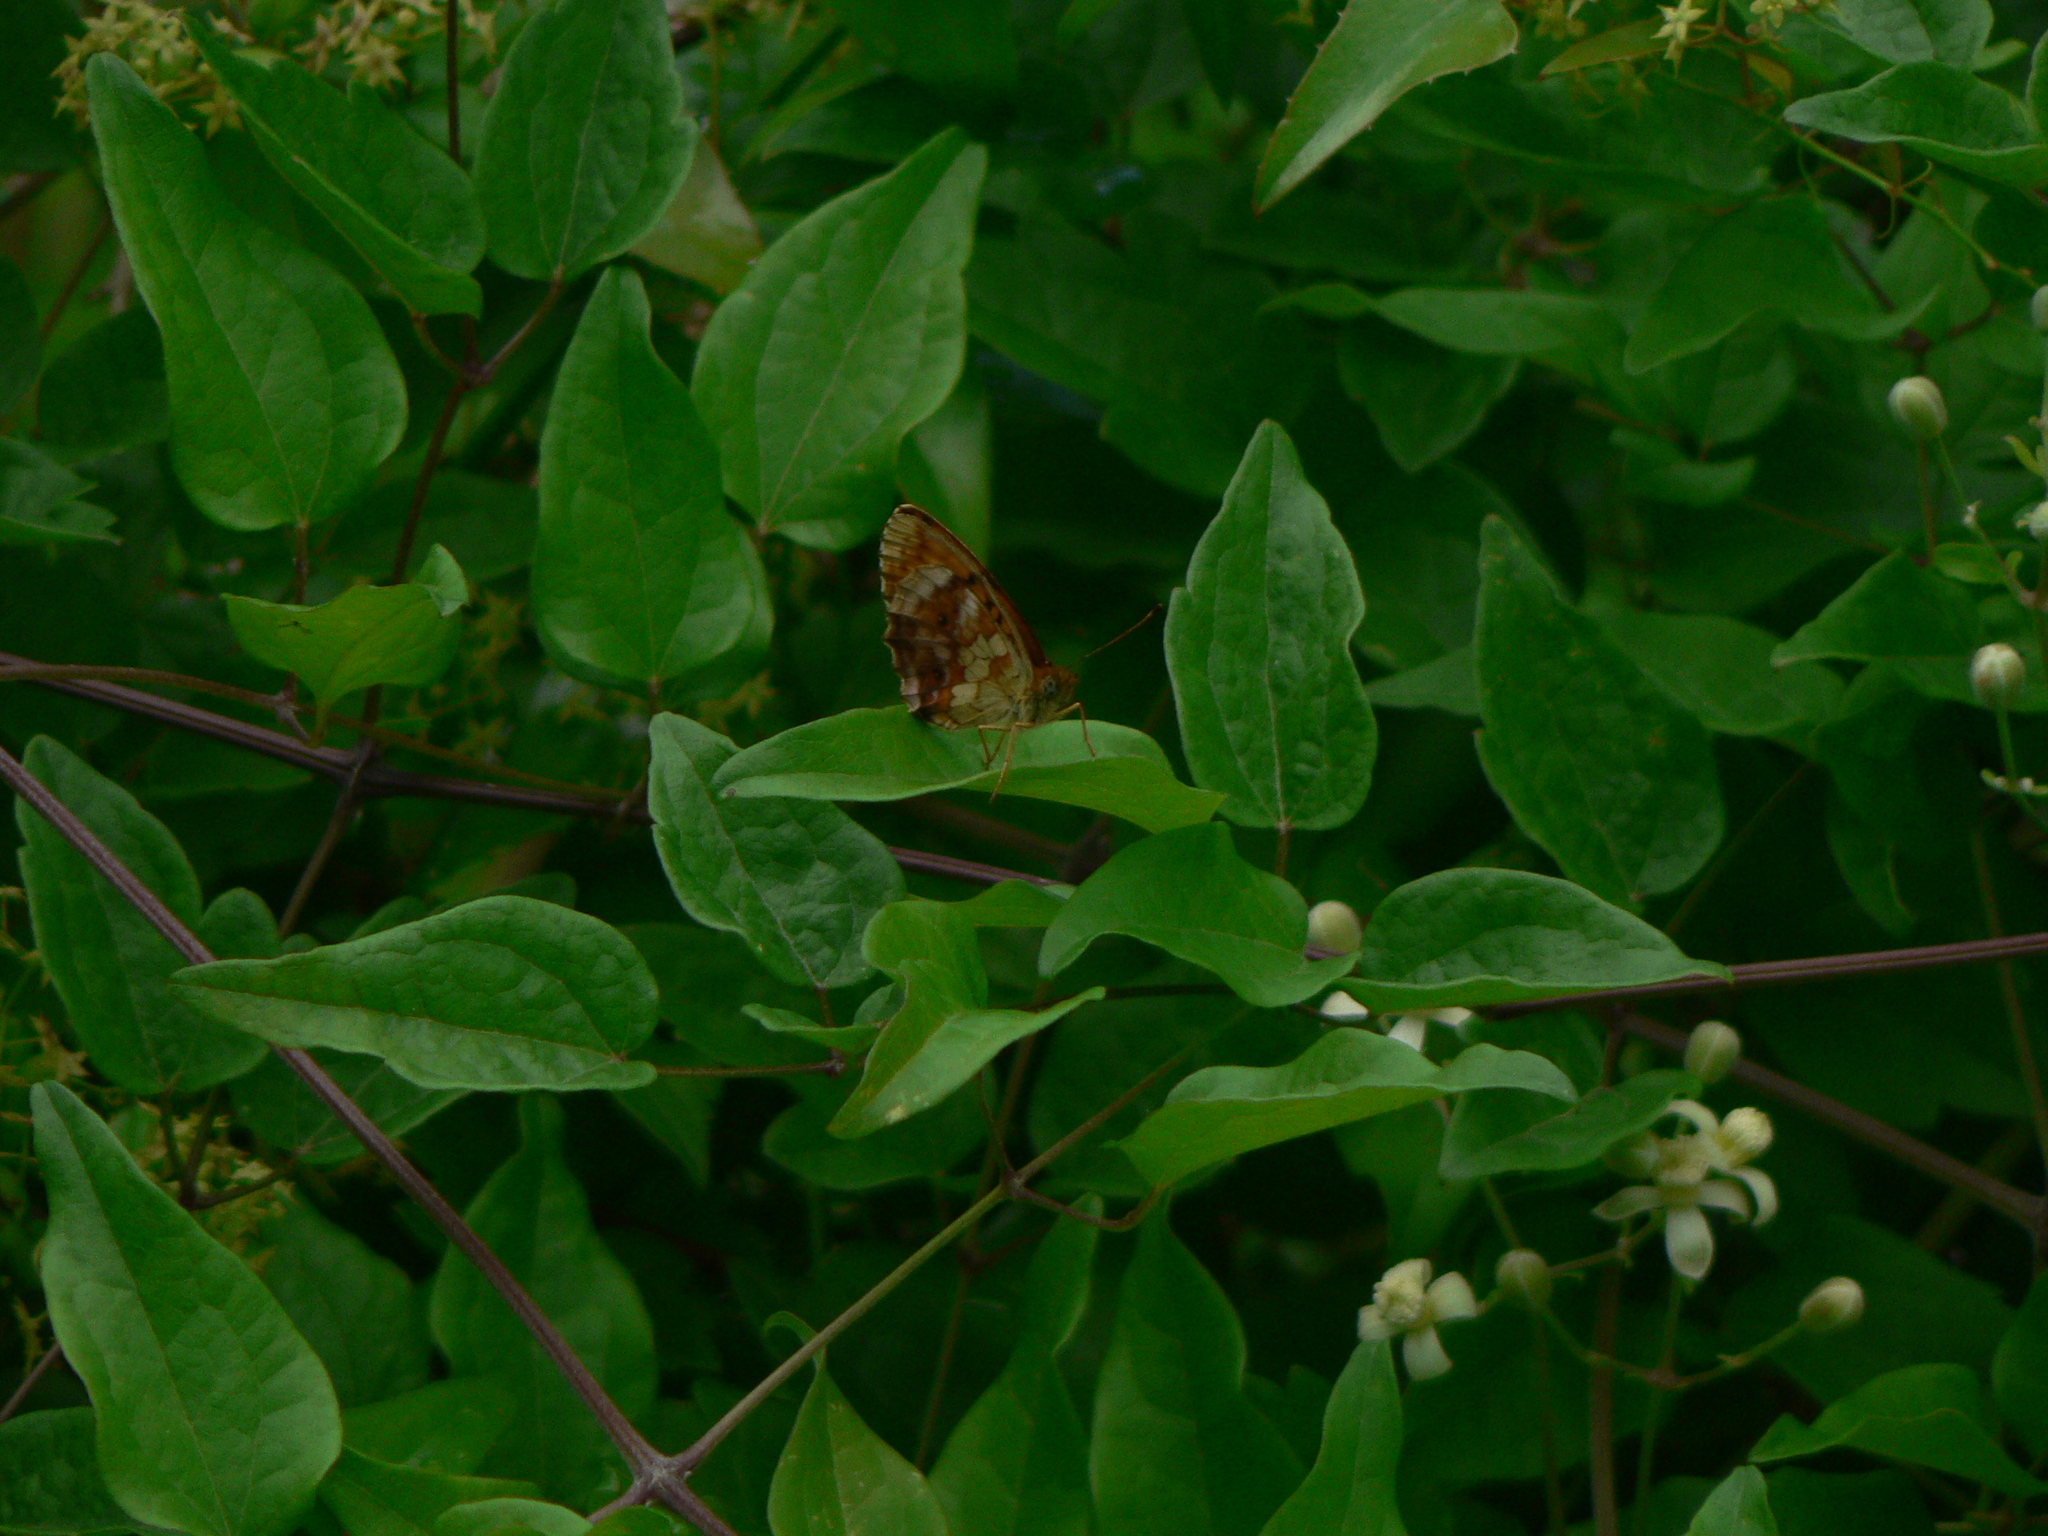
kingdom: Animalia
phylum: Arthropoda
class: Insecta
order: Lepidoptera
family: Nymphalidae
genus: Brenthis
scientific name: Brenthis daphne
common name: Marbled fritillary
